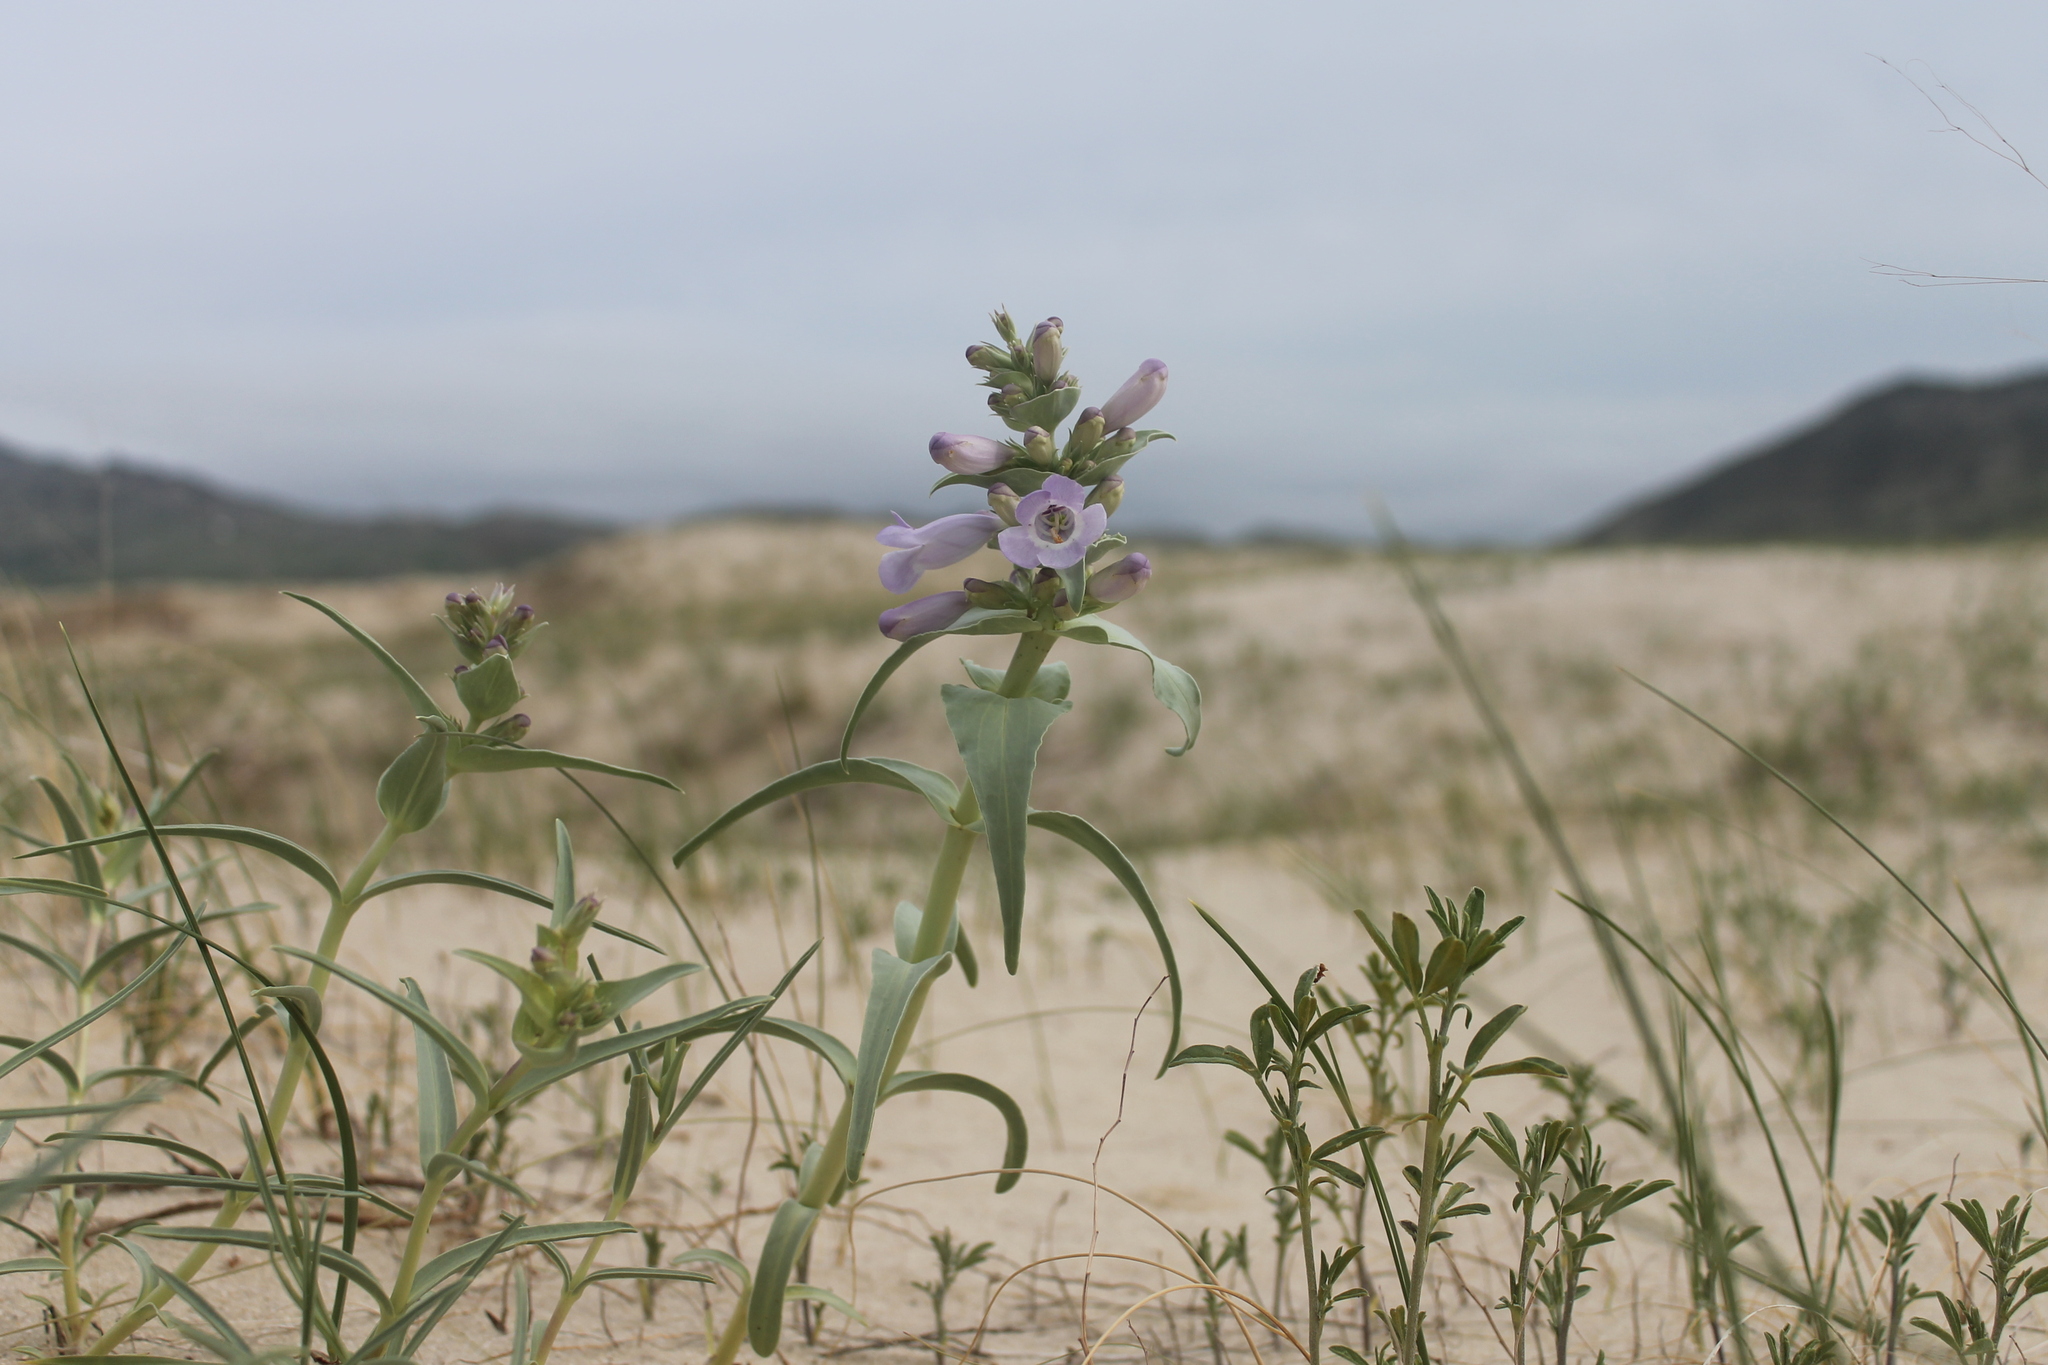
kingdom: Plantae
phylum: Tracheophyta
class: Magnoliopsida
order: Lamiales
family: Plantaginaceae
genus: Penstemon
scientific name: Penstemon haydenii
